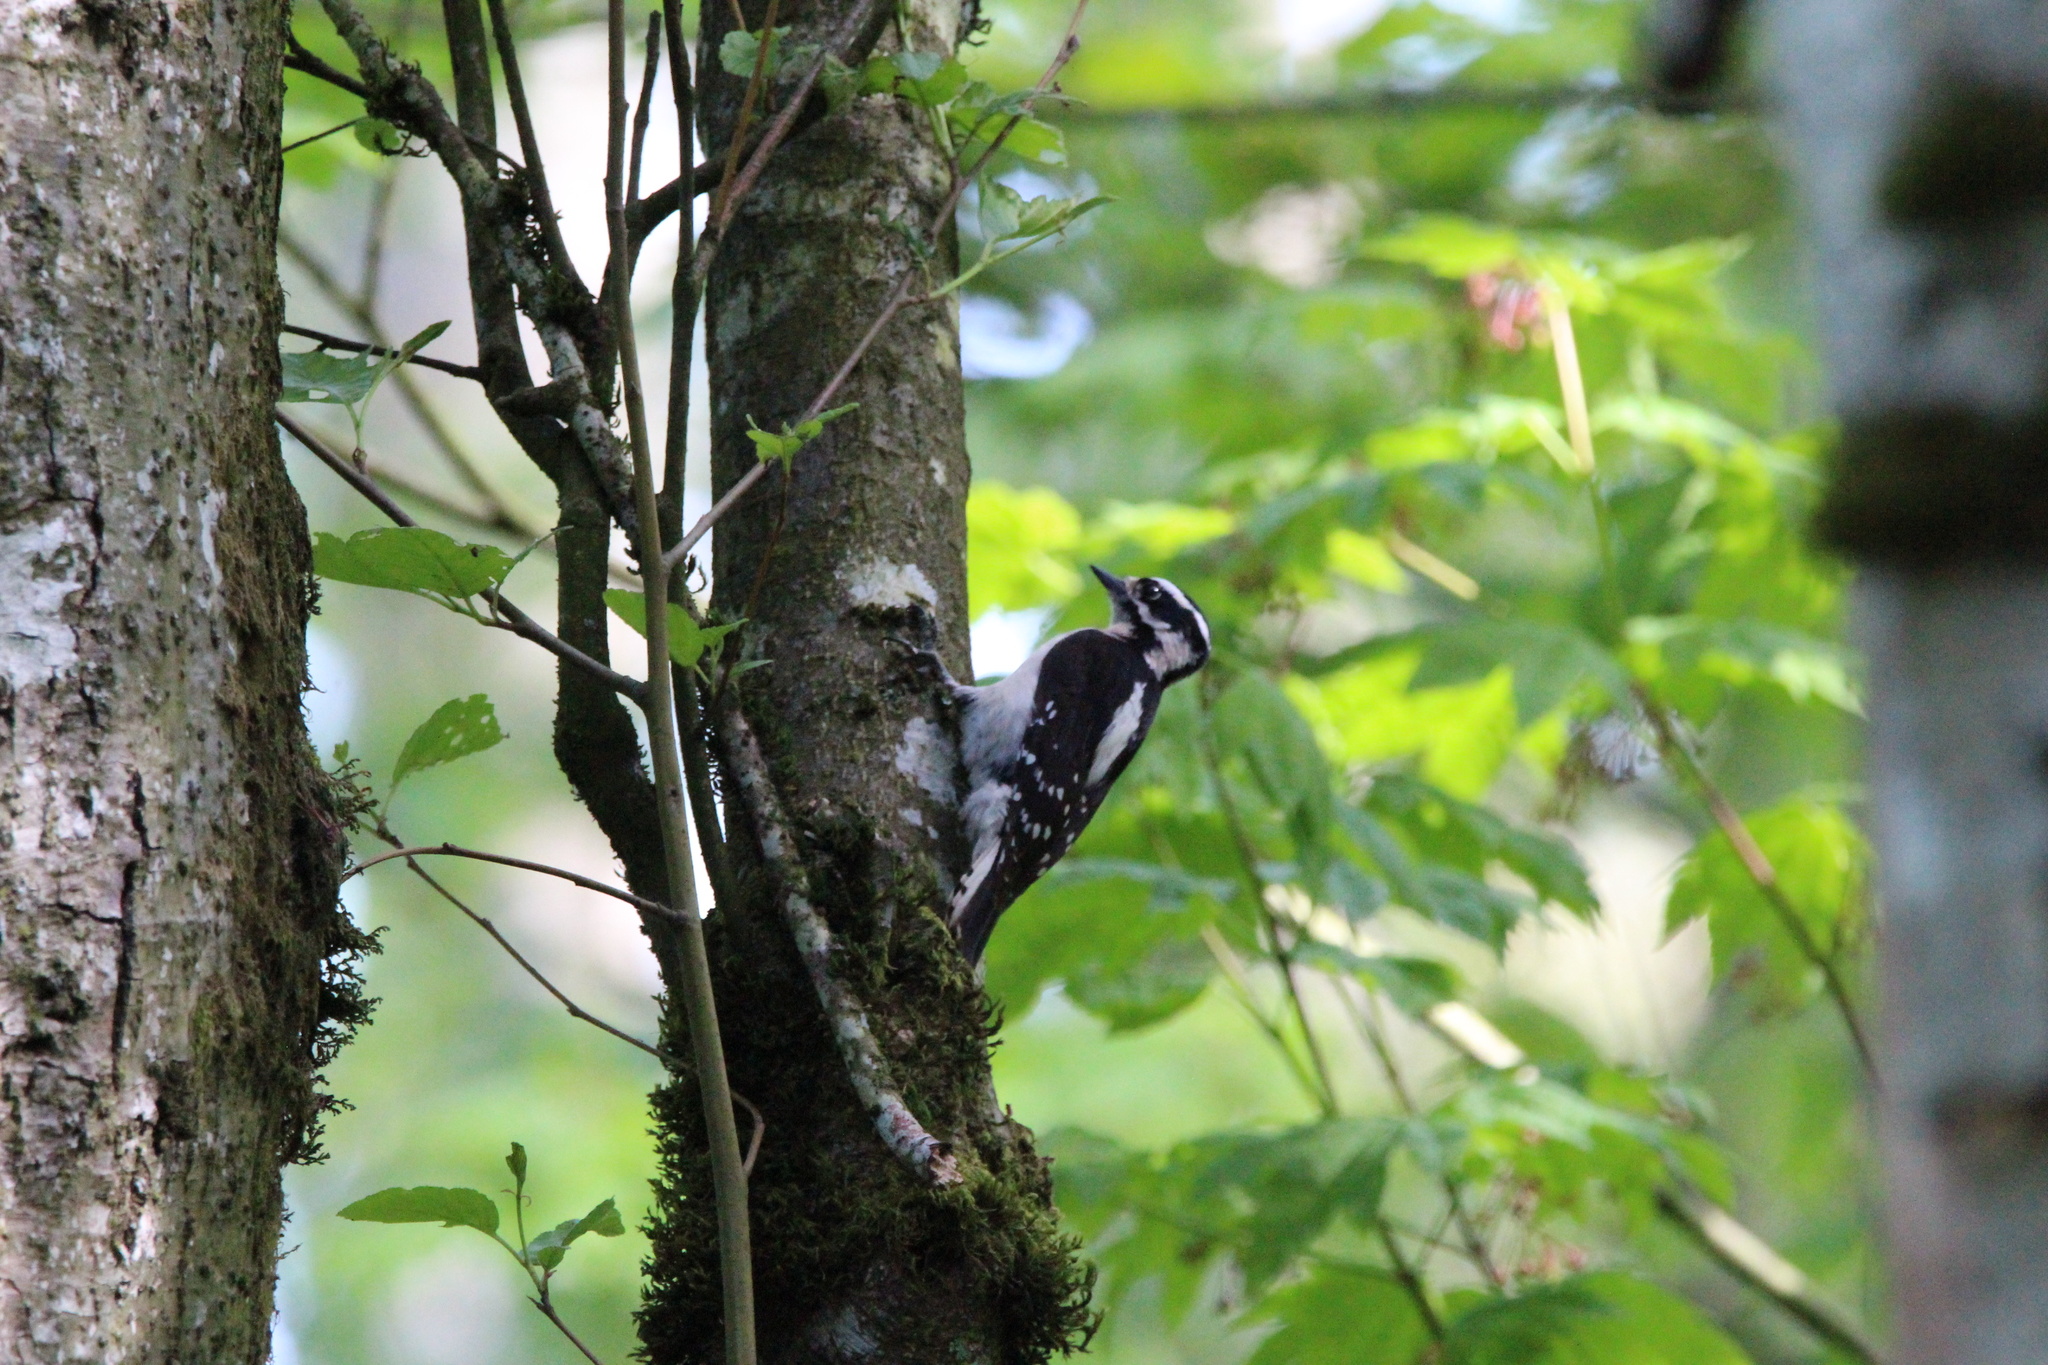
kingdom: Animalia
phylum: Chordata
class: Aves
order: Piciformes
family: Picidae
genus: Dryobates
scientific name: Dryobates pubescens
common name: Downy woodpecker
